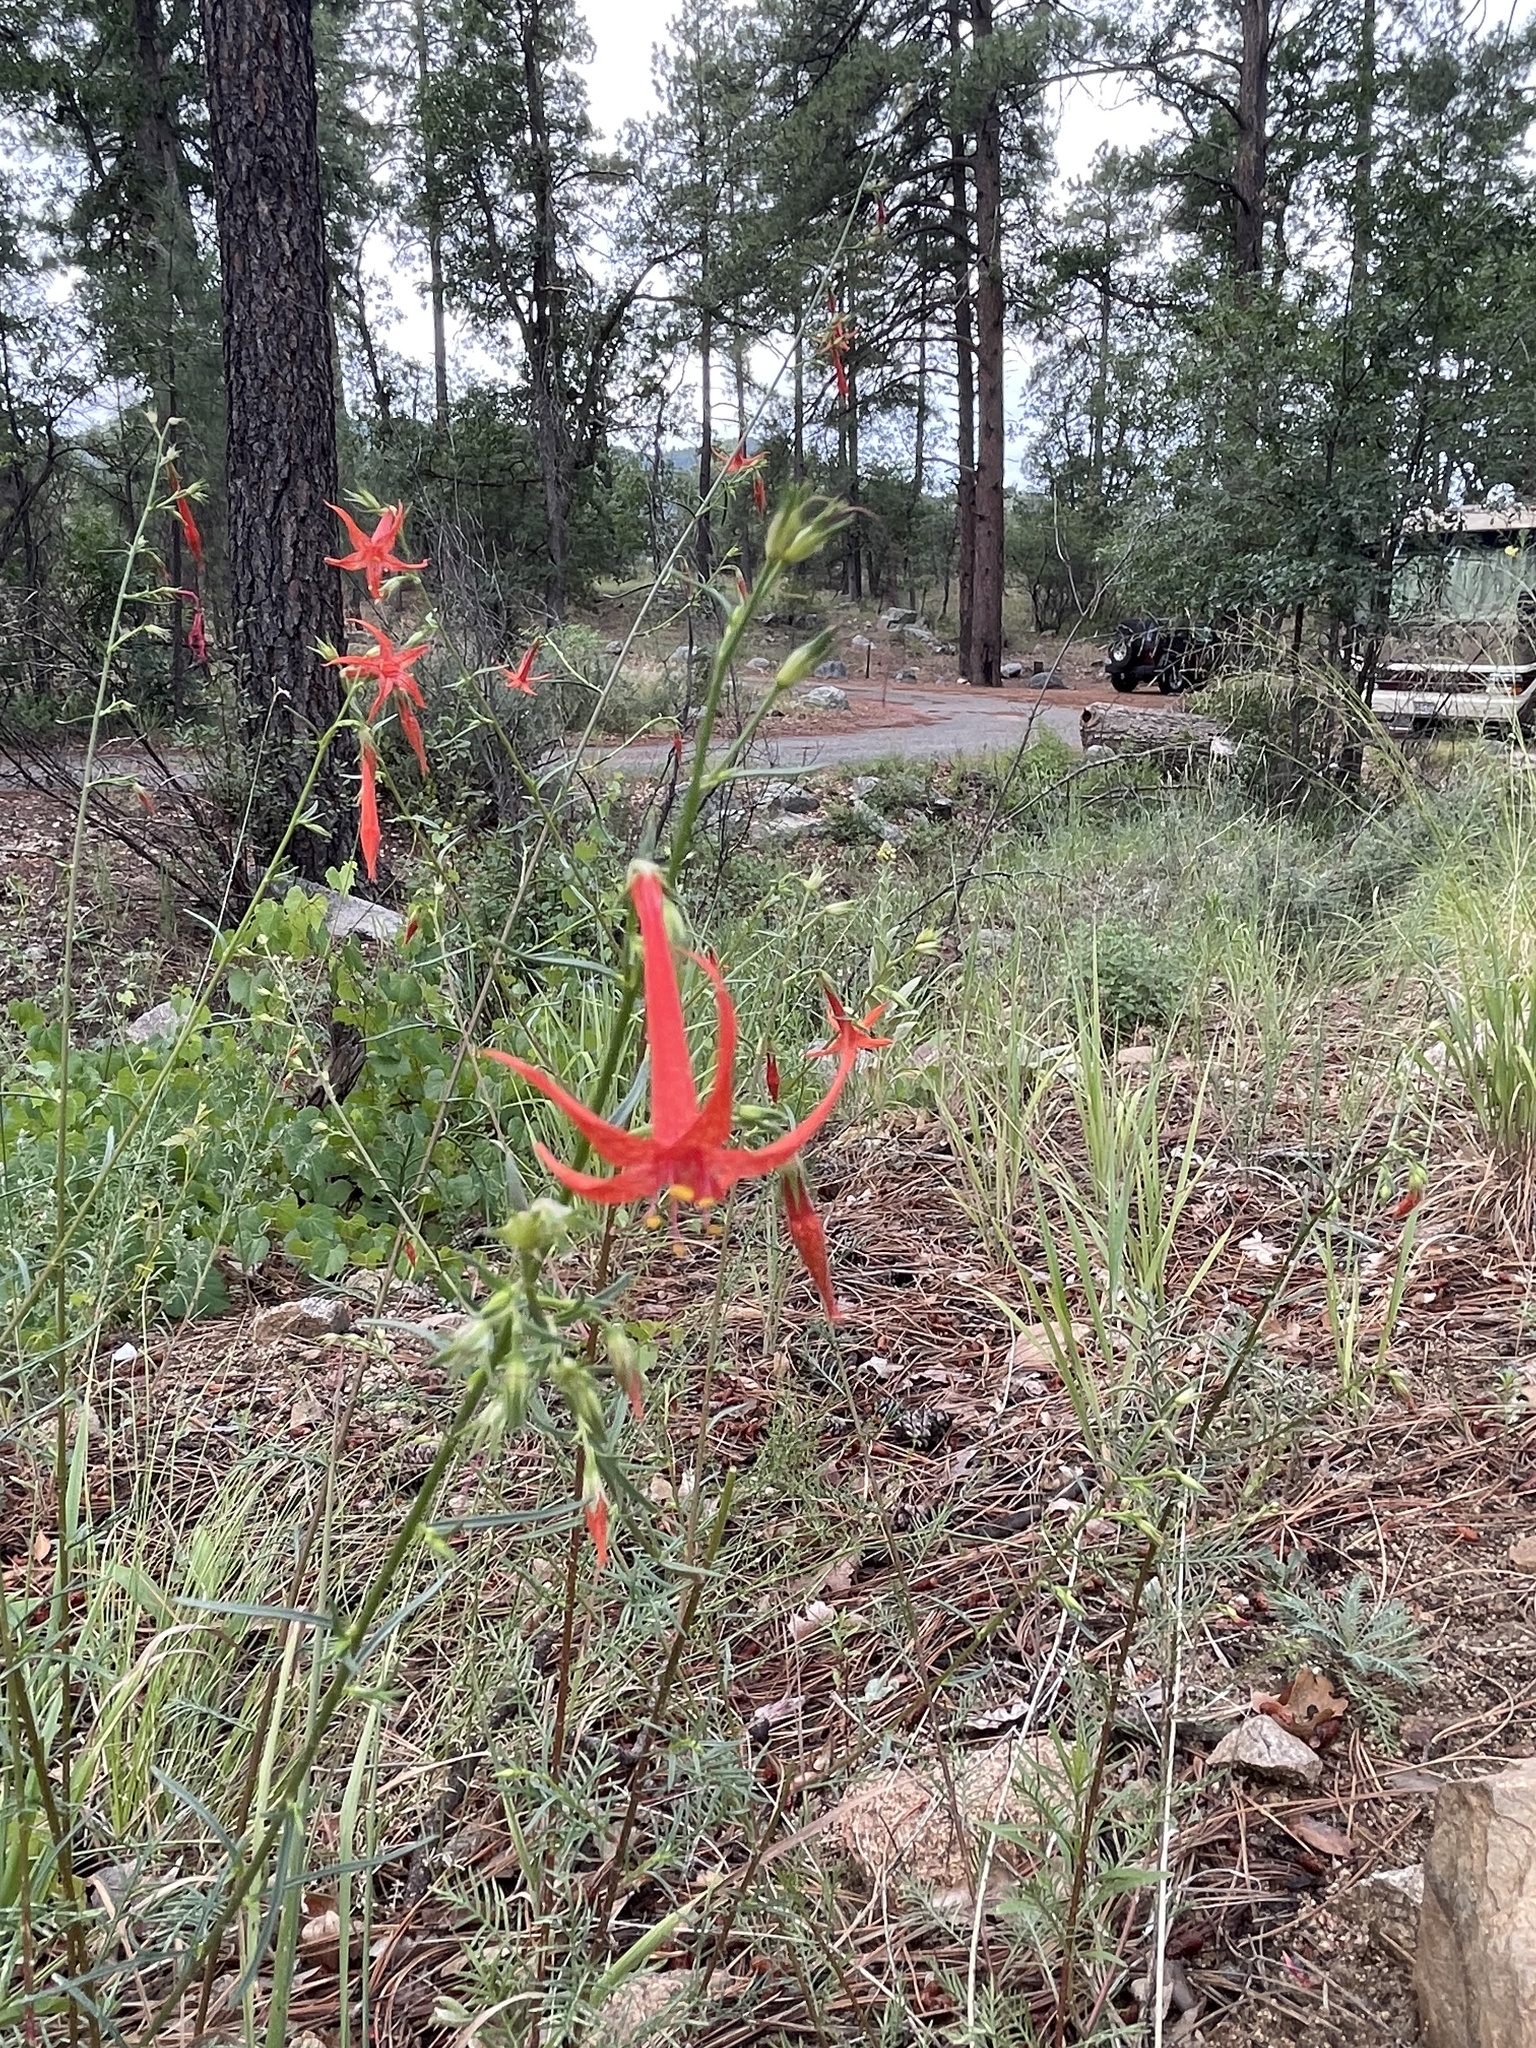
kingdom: Plantae
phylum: Tracheophyta
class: Magnoliopsida
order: Ericales
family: Polemoniaceae
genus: Ipomopsis
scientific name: Ipomopsis aggregata
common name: Scarlet gilia
